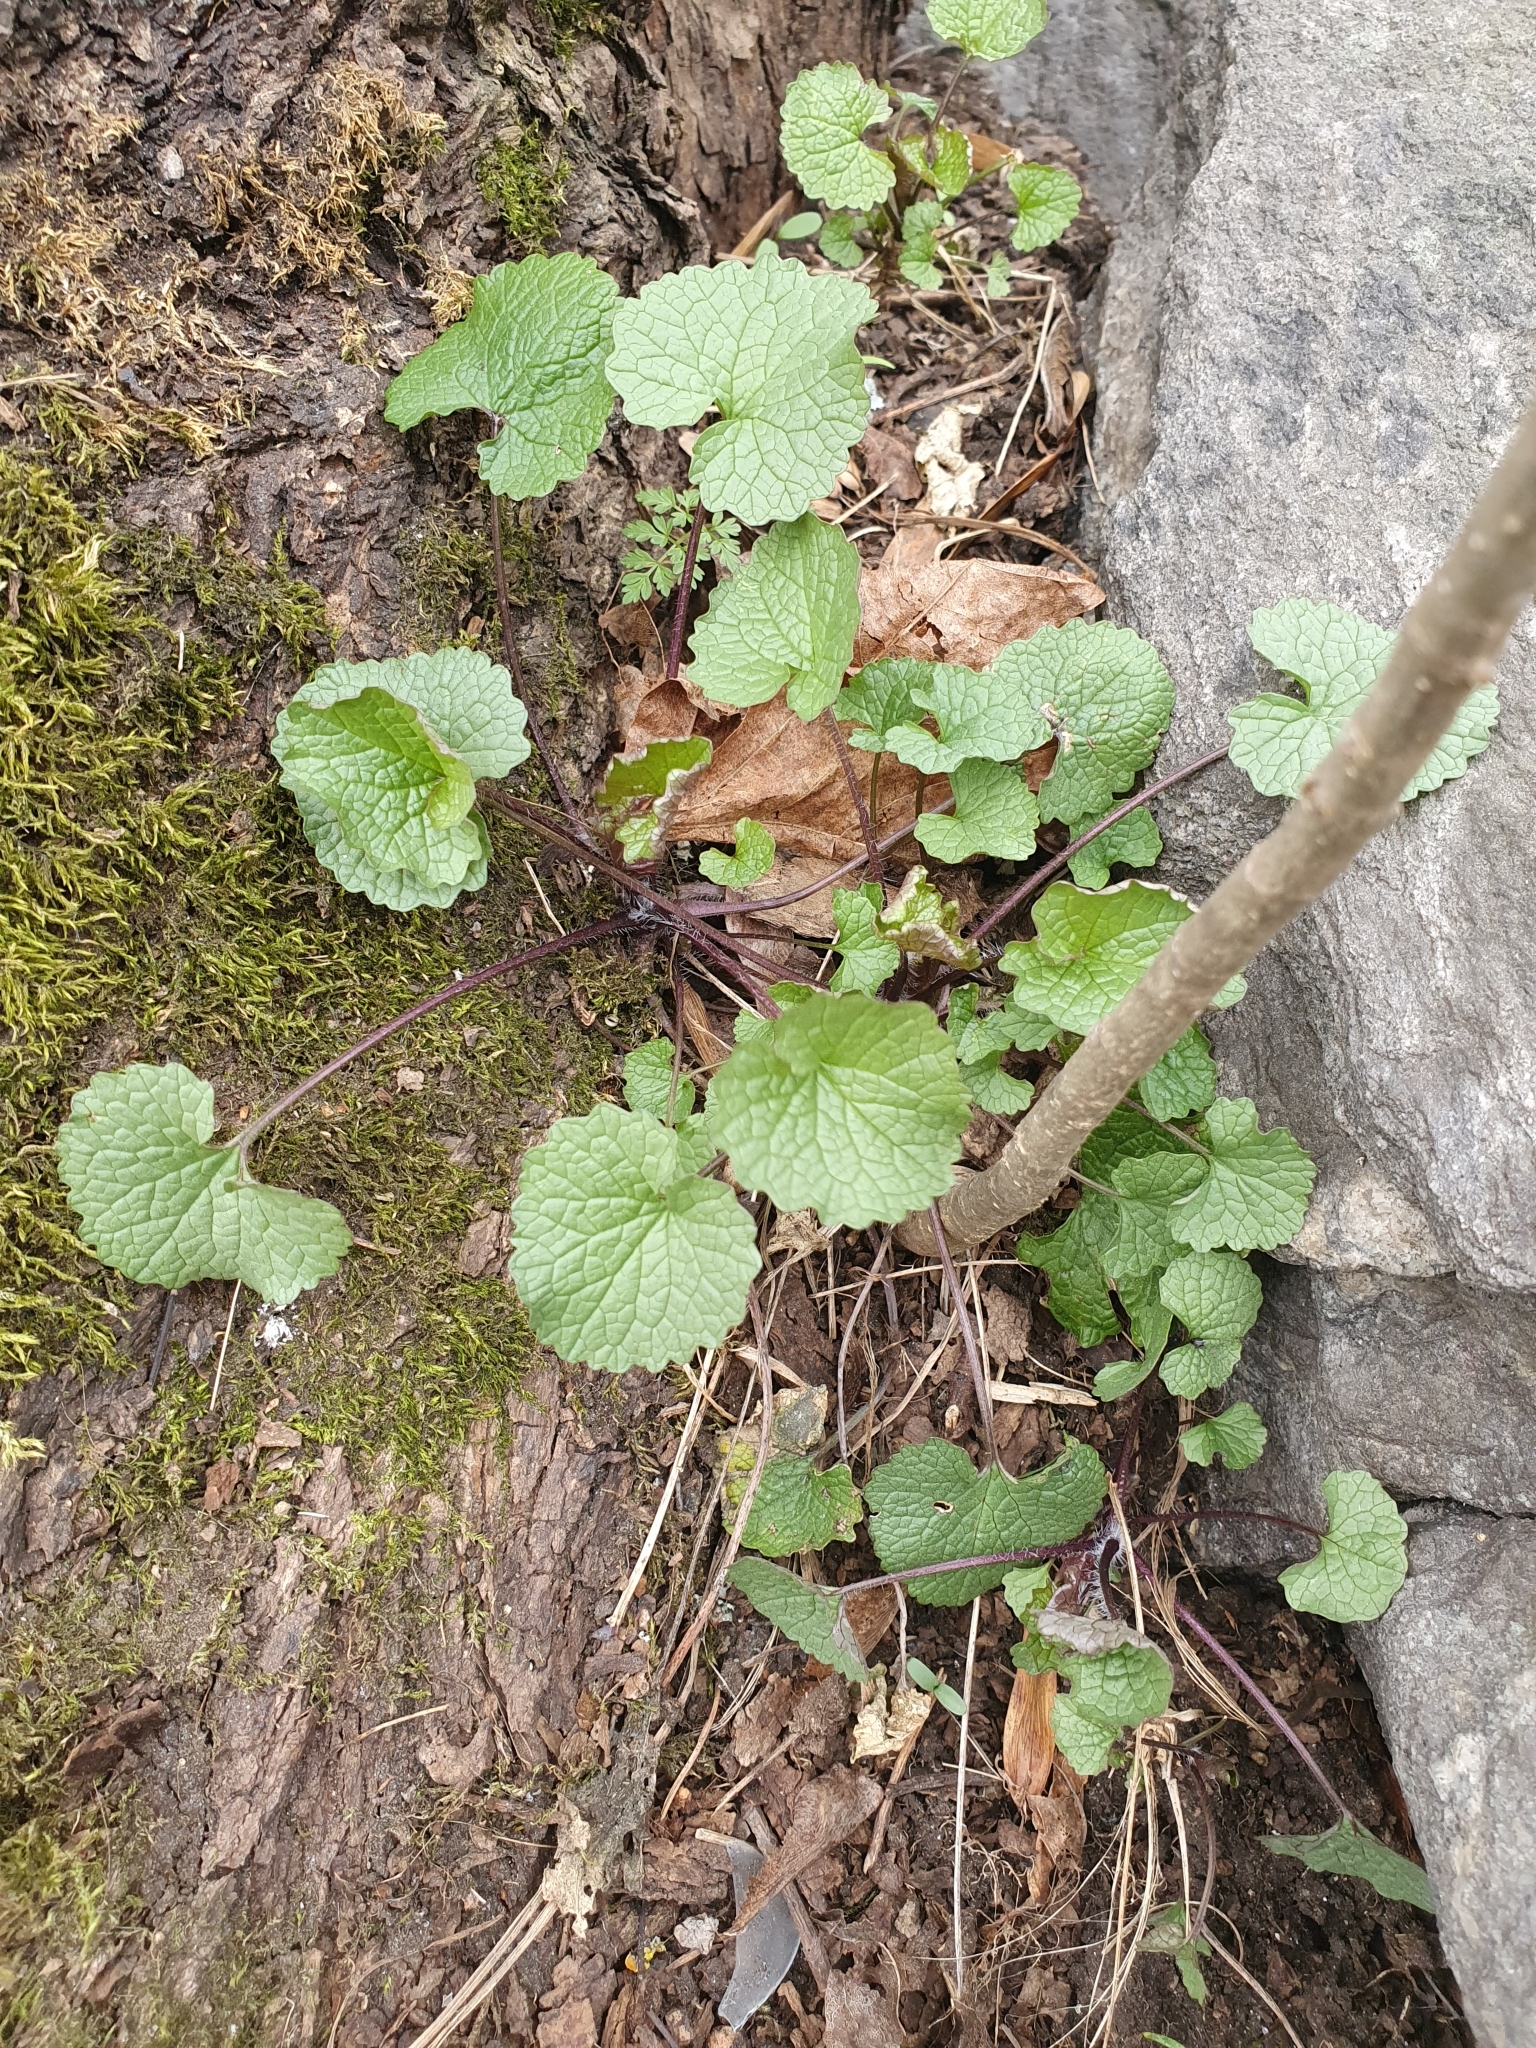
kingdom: Plantae
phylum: Tracheophyta
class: Magnoliopsida
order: Brassicales
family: Brassicaceae
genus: Alliaria
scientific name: Alliaria petiolata
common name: Garlic mustard
